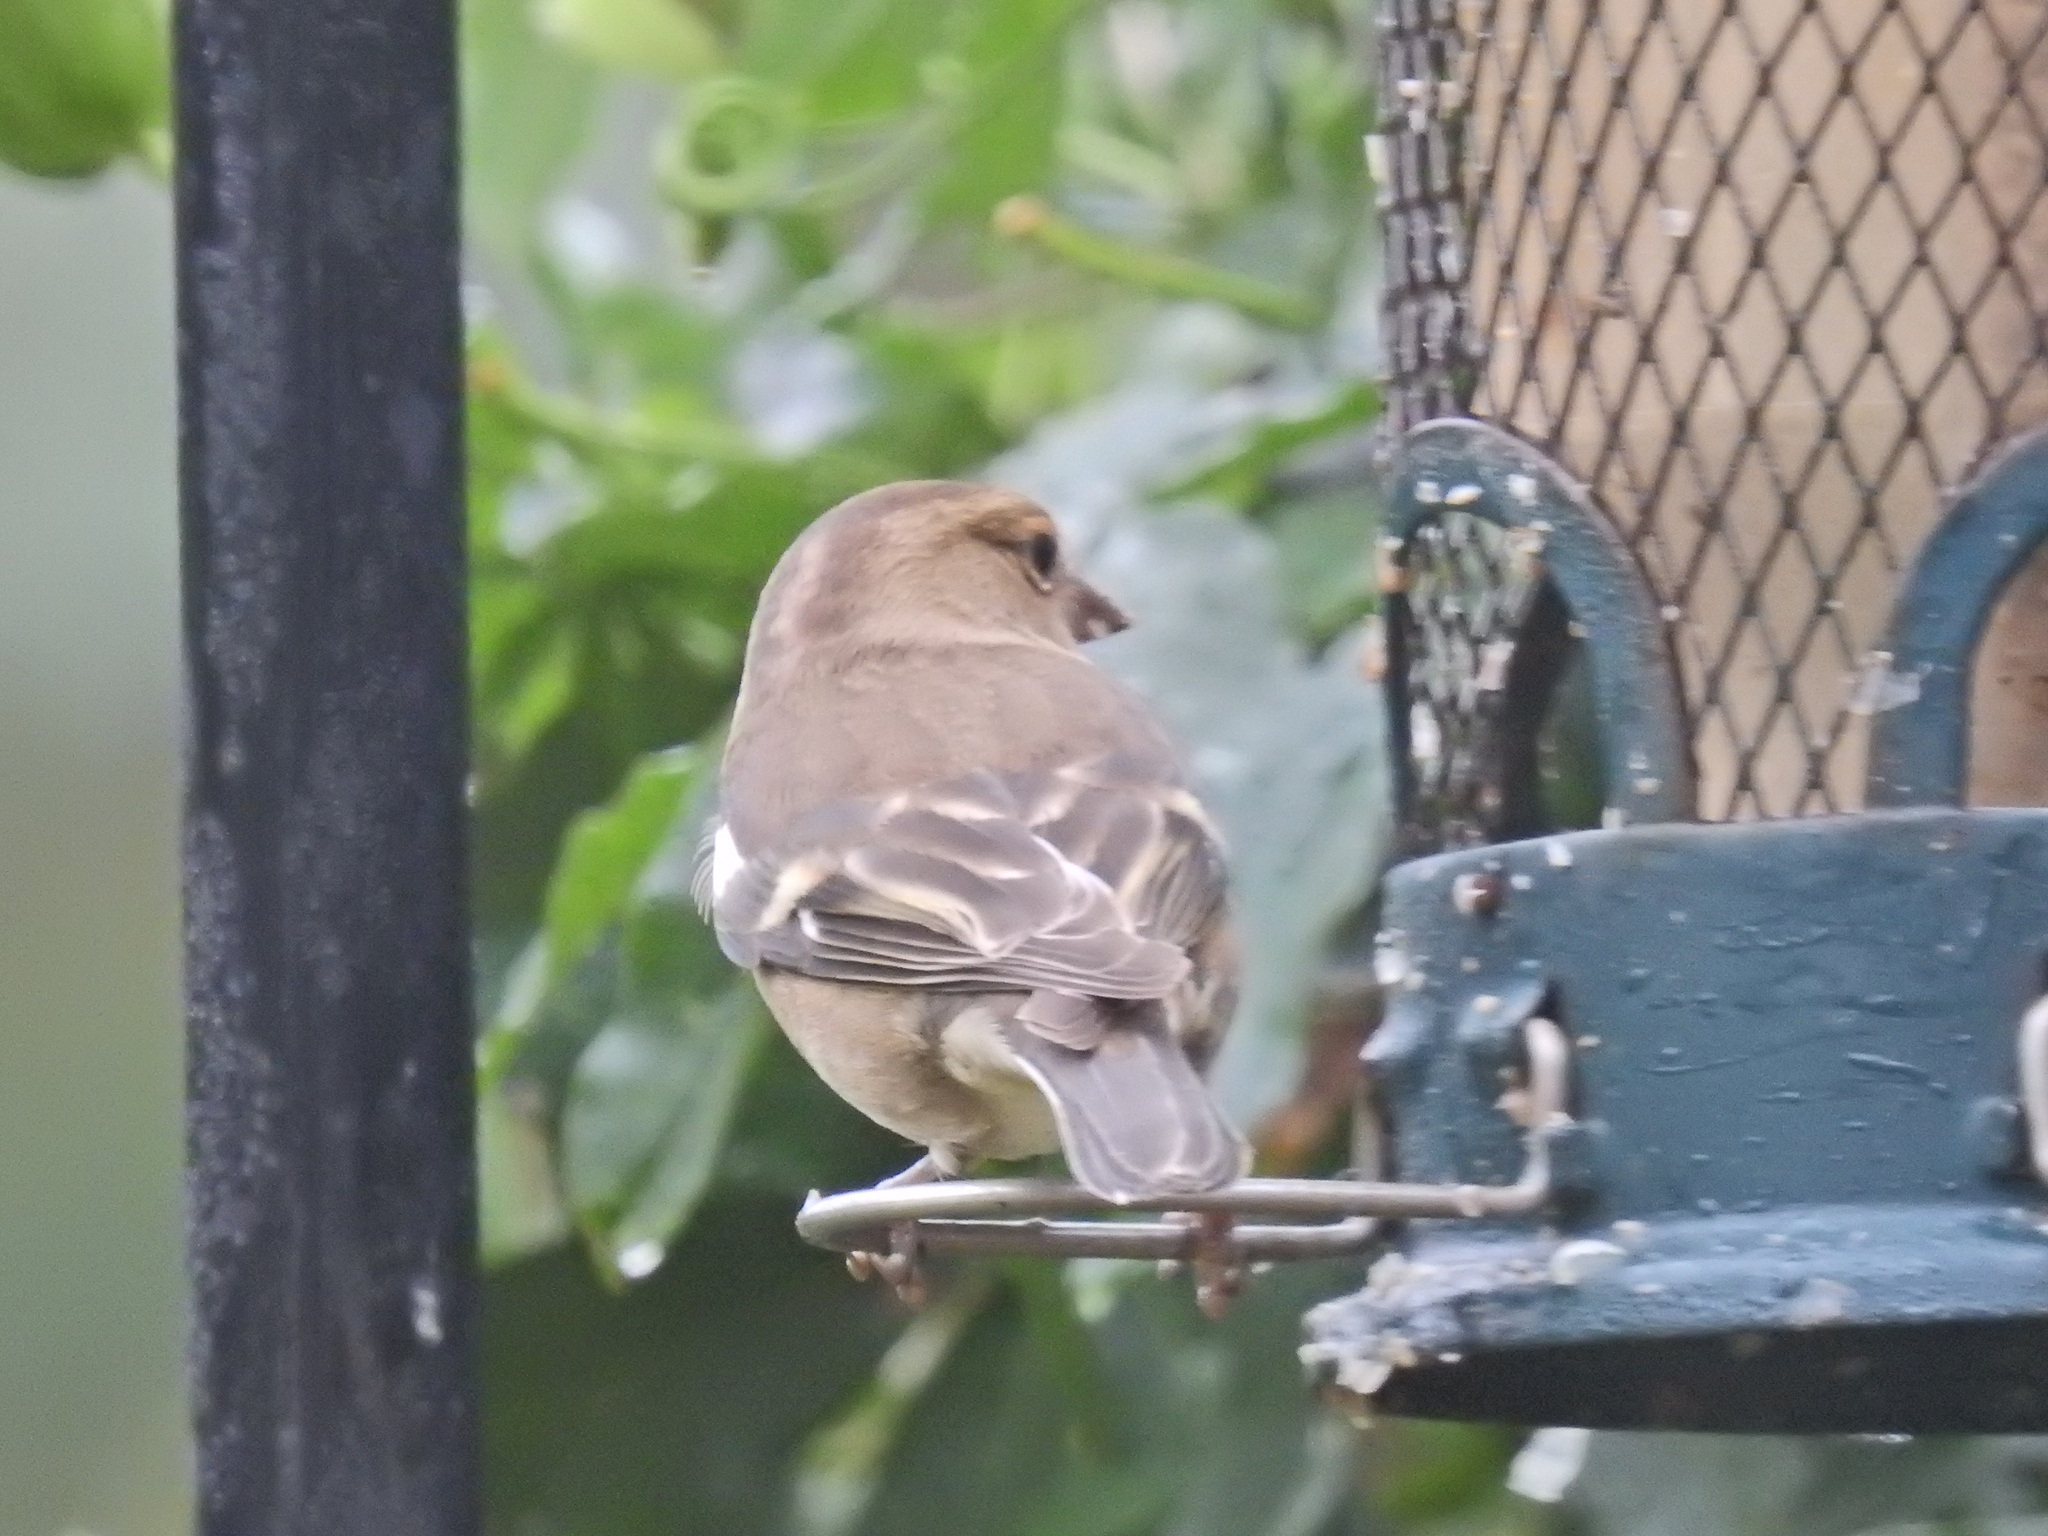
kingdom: Animalia
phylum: Chordata
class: Aves
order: Passeriformes
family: Fringillidae
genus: Fringilla
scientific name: Fringilla coelebs
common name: Common chaffinch
